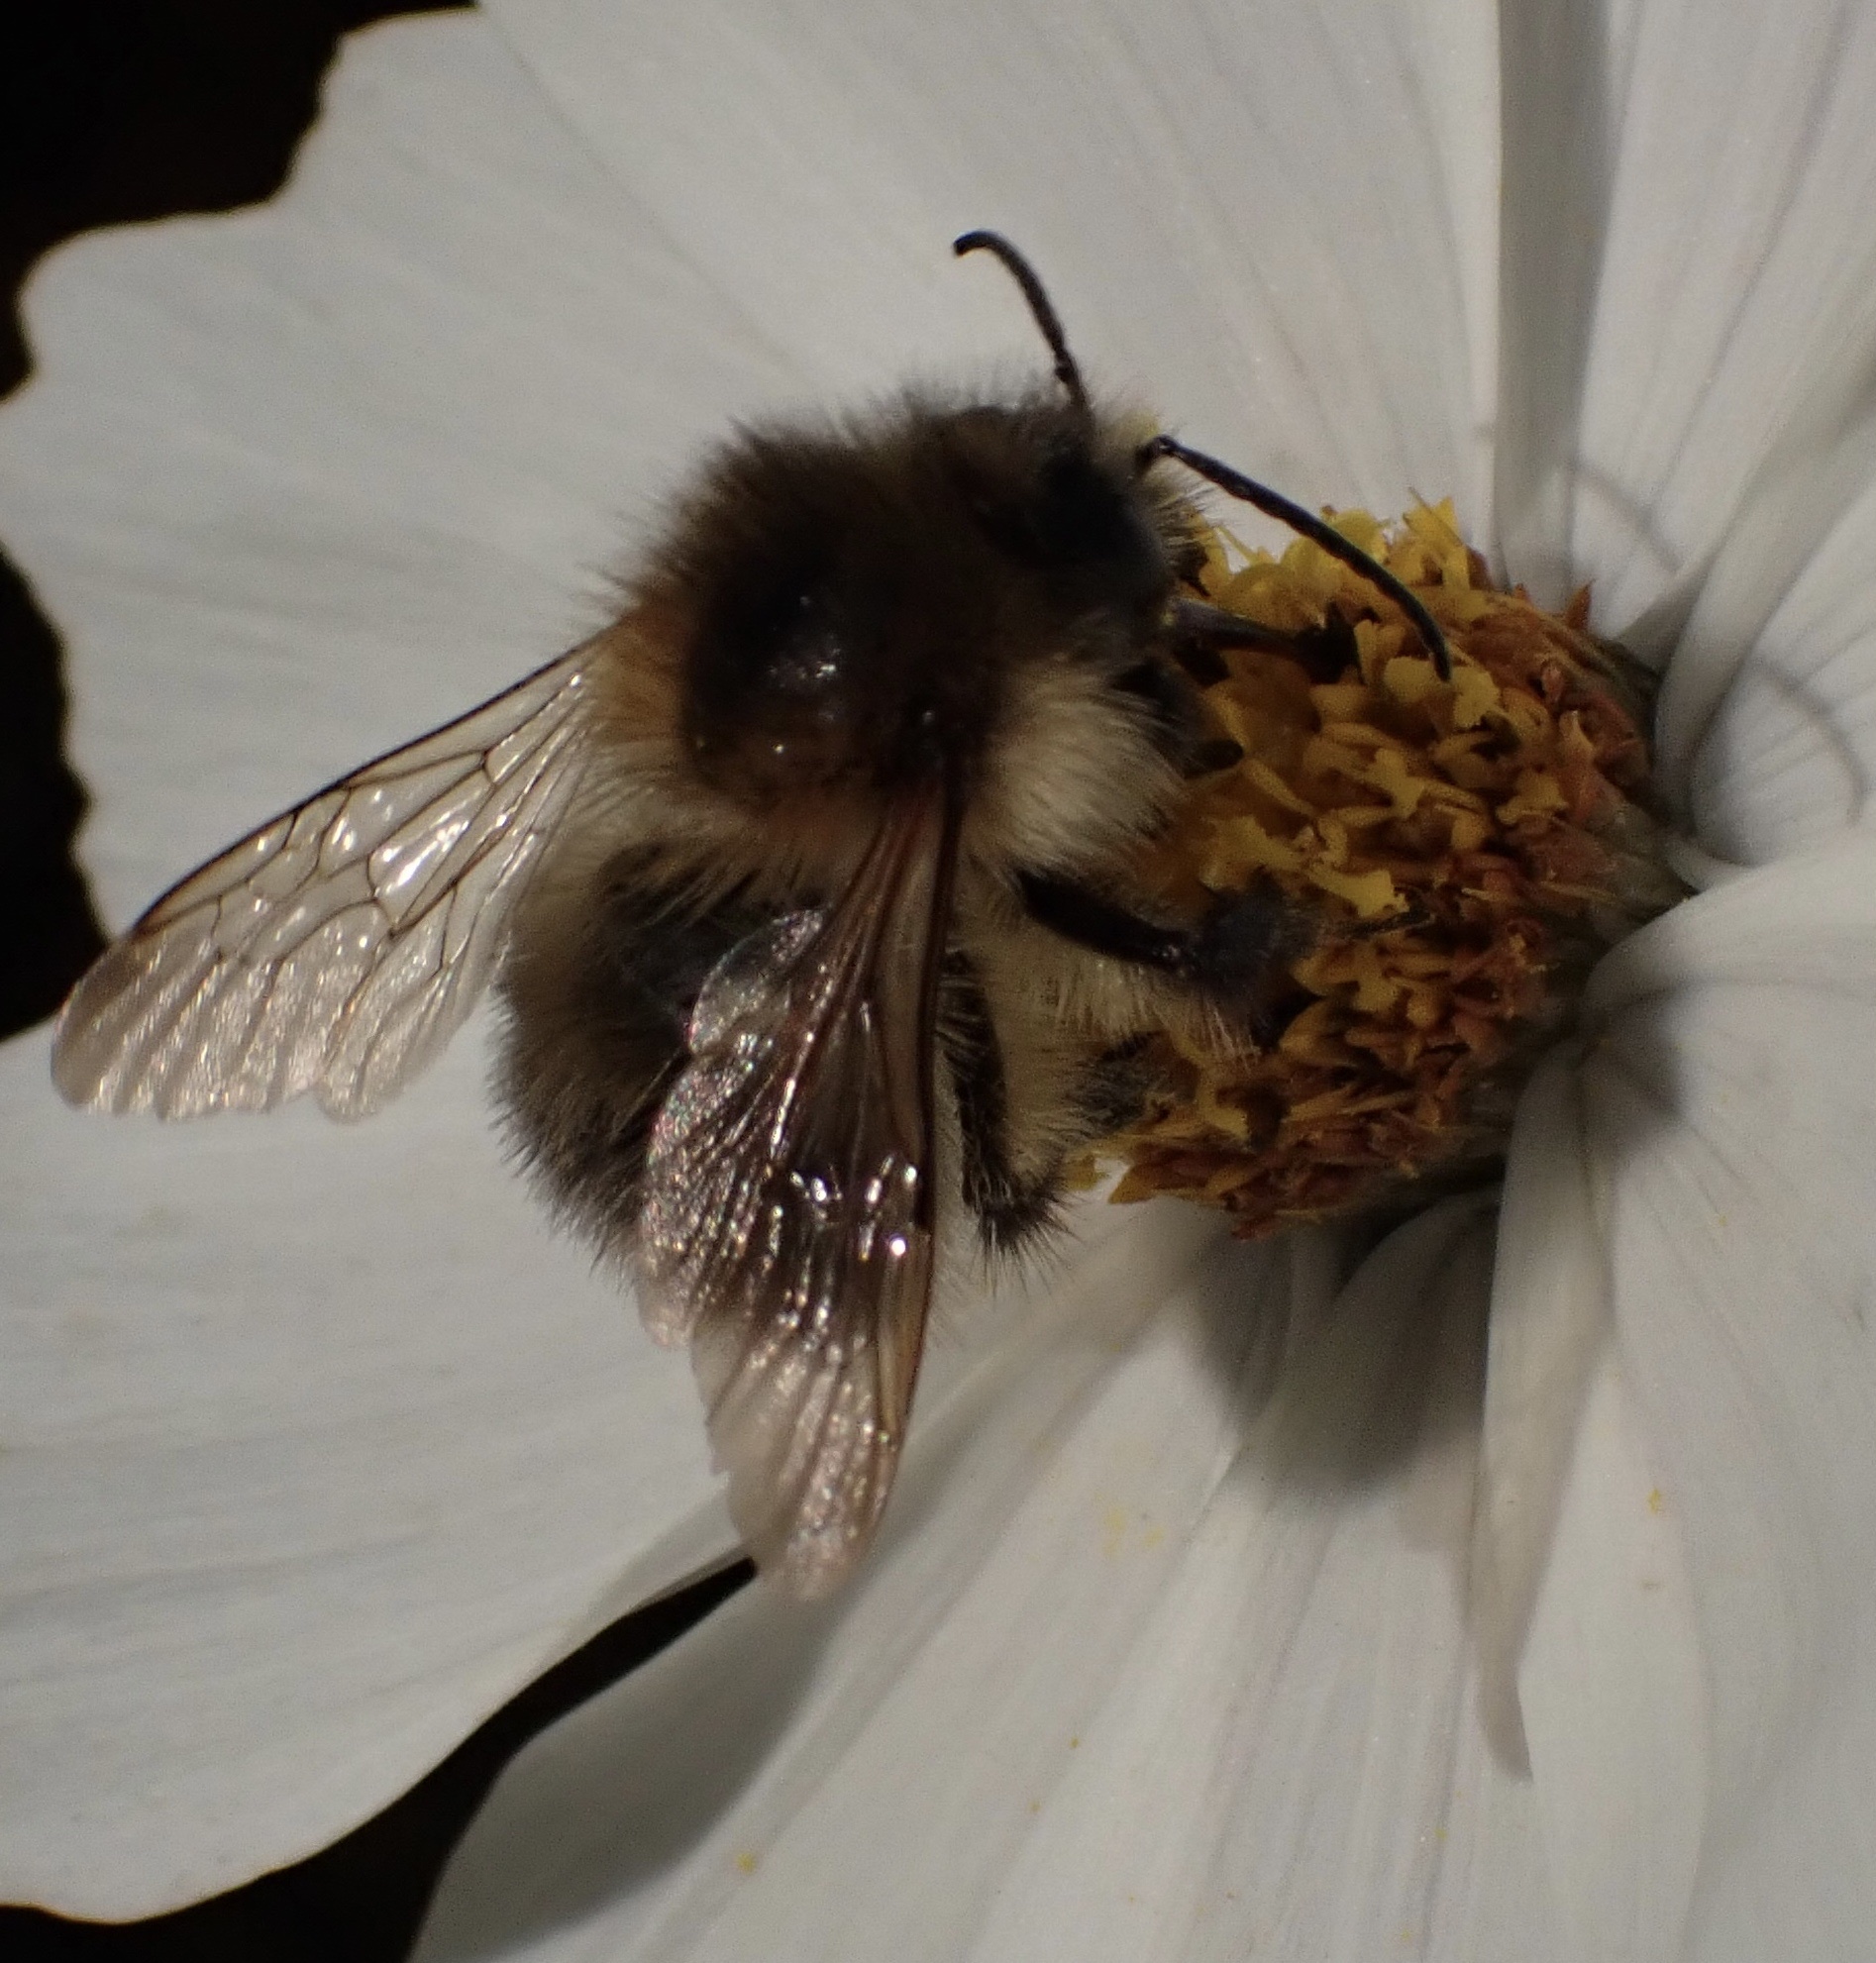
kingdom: Animalia
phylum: Arthropoda
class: Insecta
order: Hymenoptera
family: Apidae
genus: Bombus
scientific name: Bombus pascuorum
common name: Common carder bee
